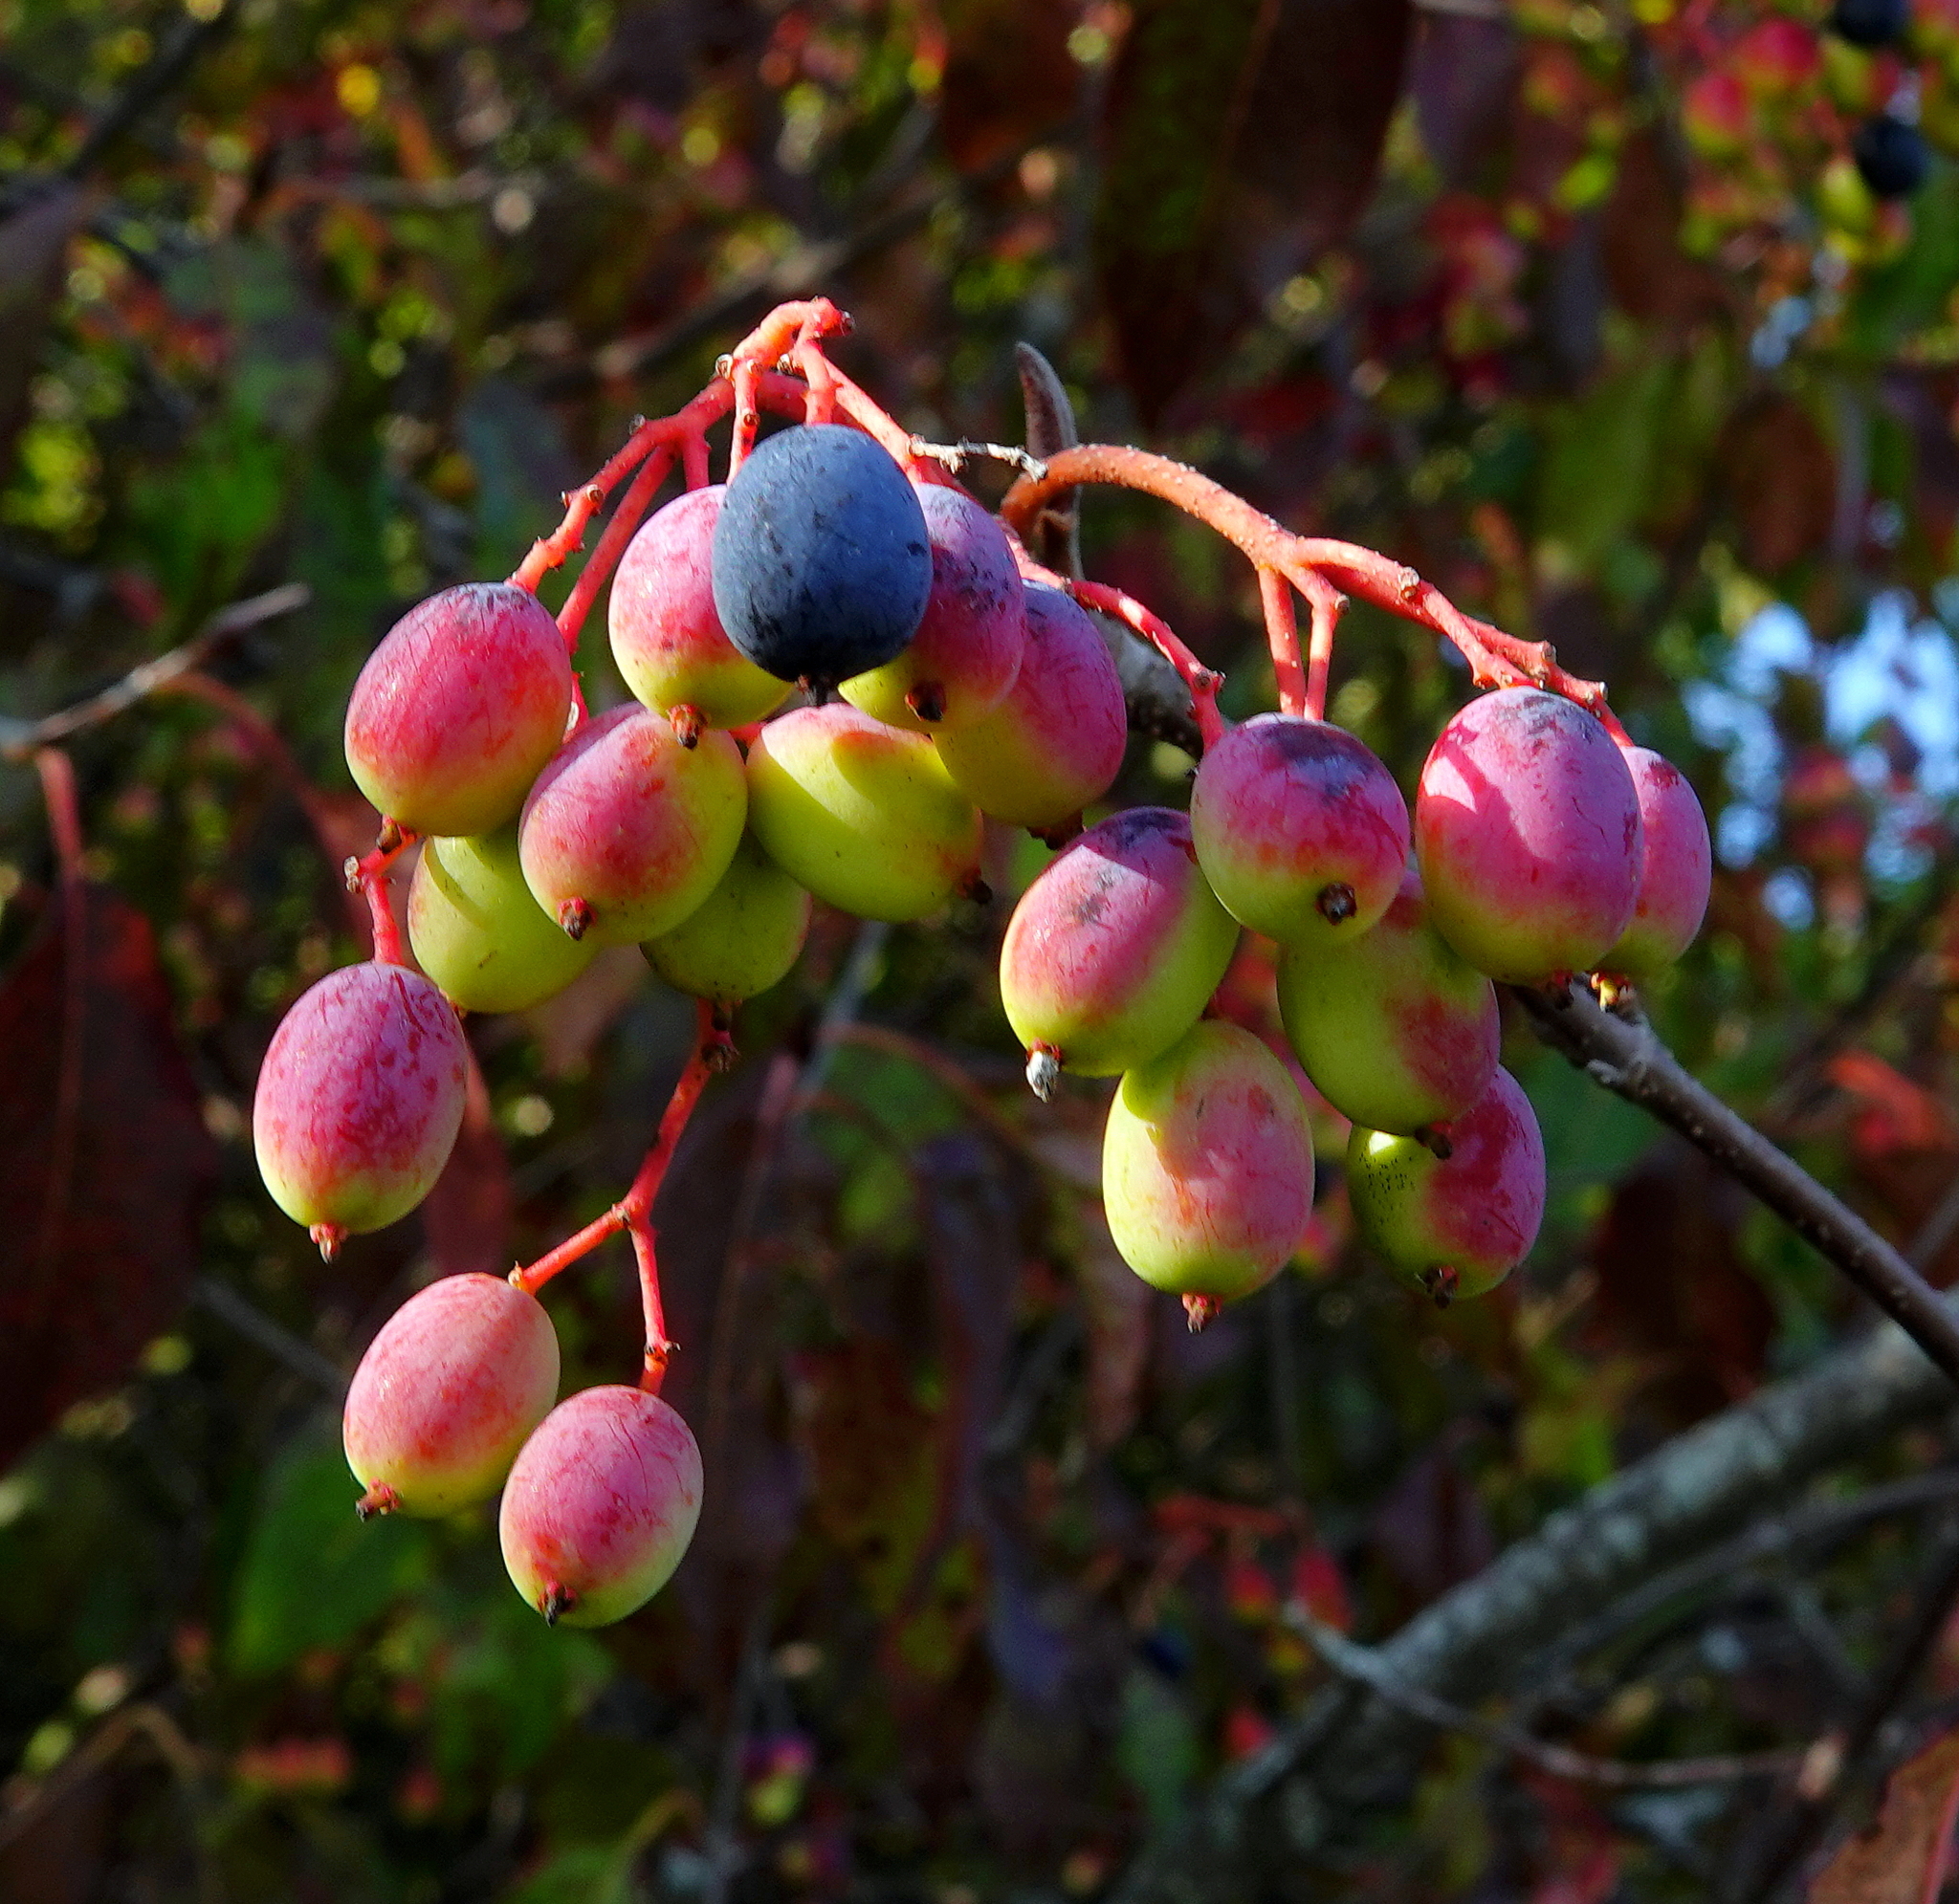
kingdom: Plantae
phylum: Tracheophyta
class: Magnoliopsida
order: Dipsacales
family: Viburnaceae
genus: Viburnum
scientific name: Viburnum lentago
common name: Black haw
